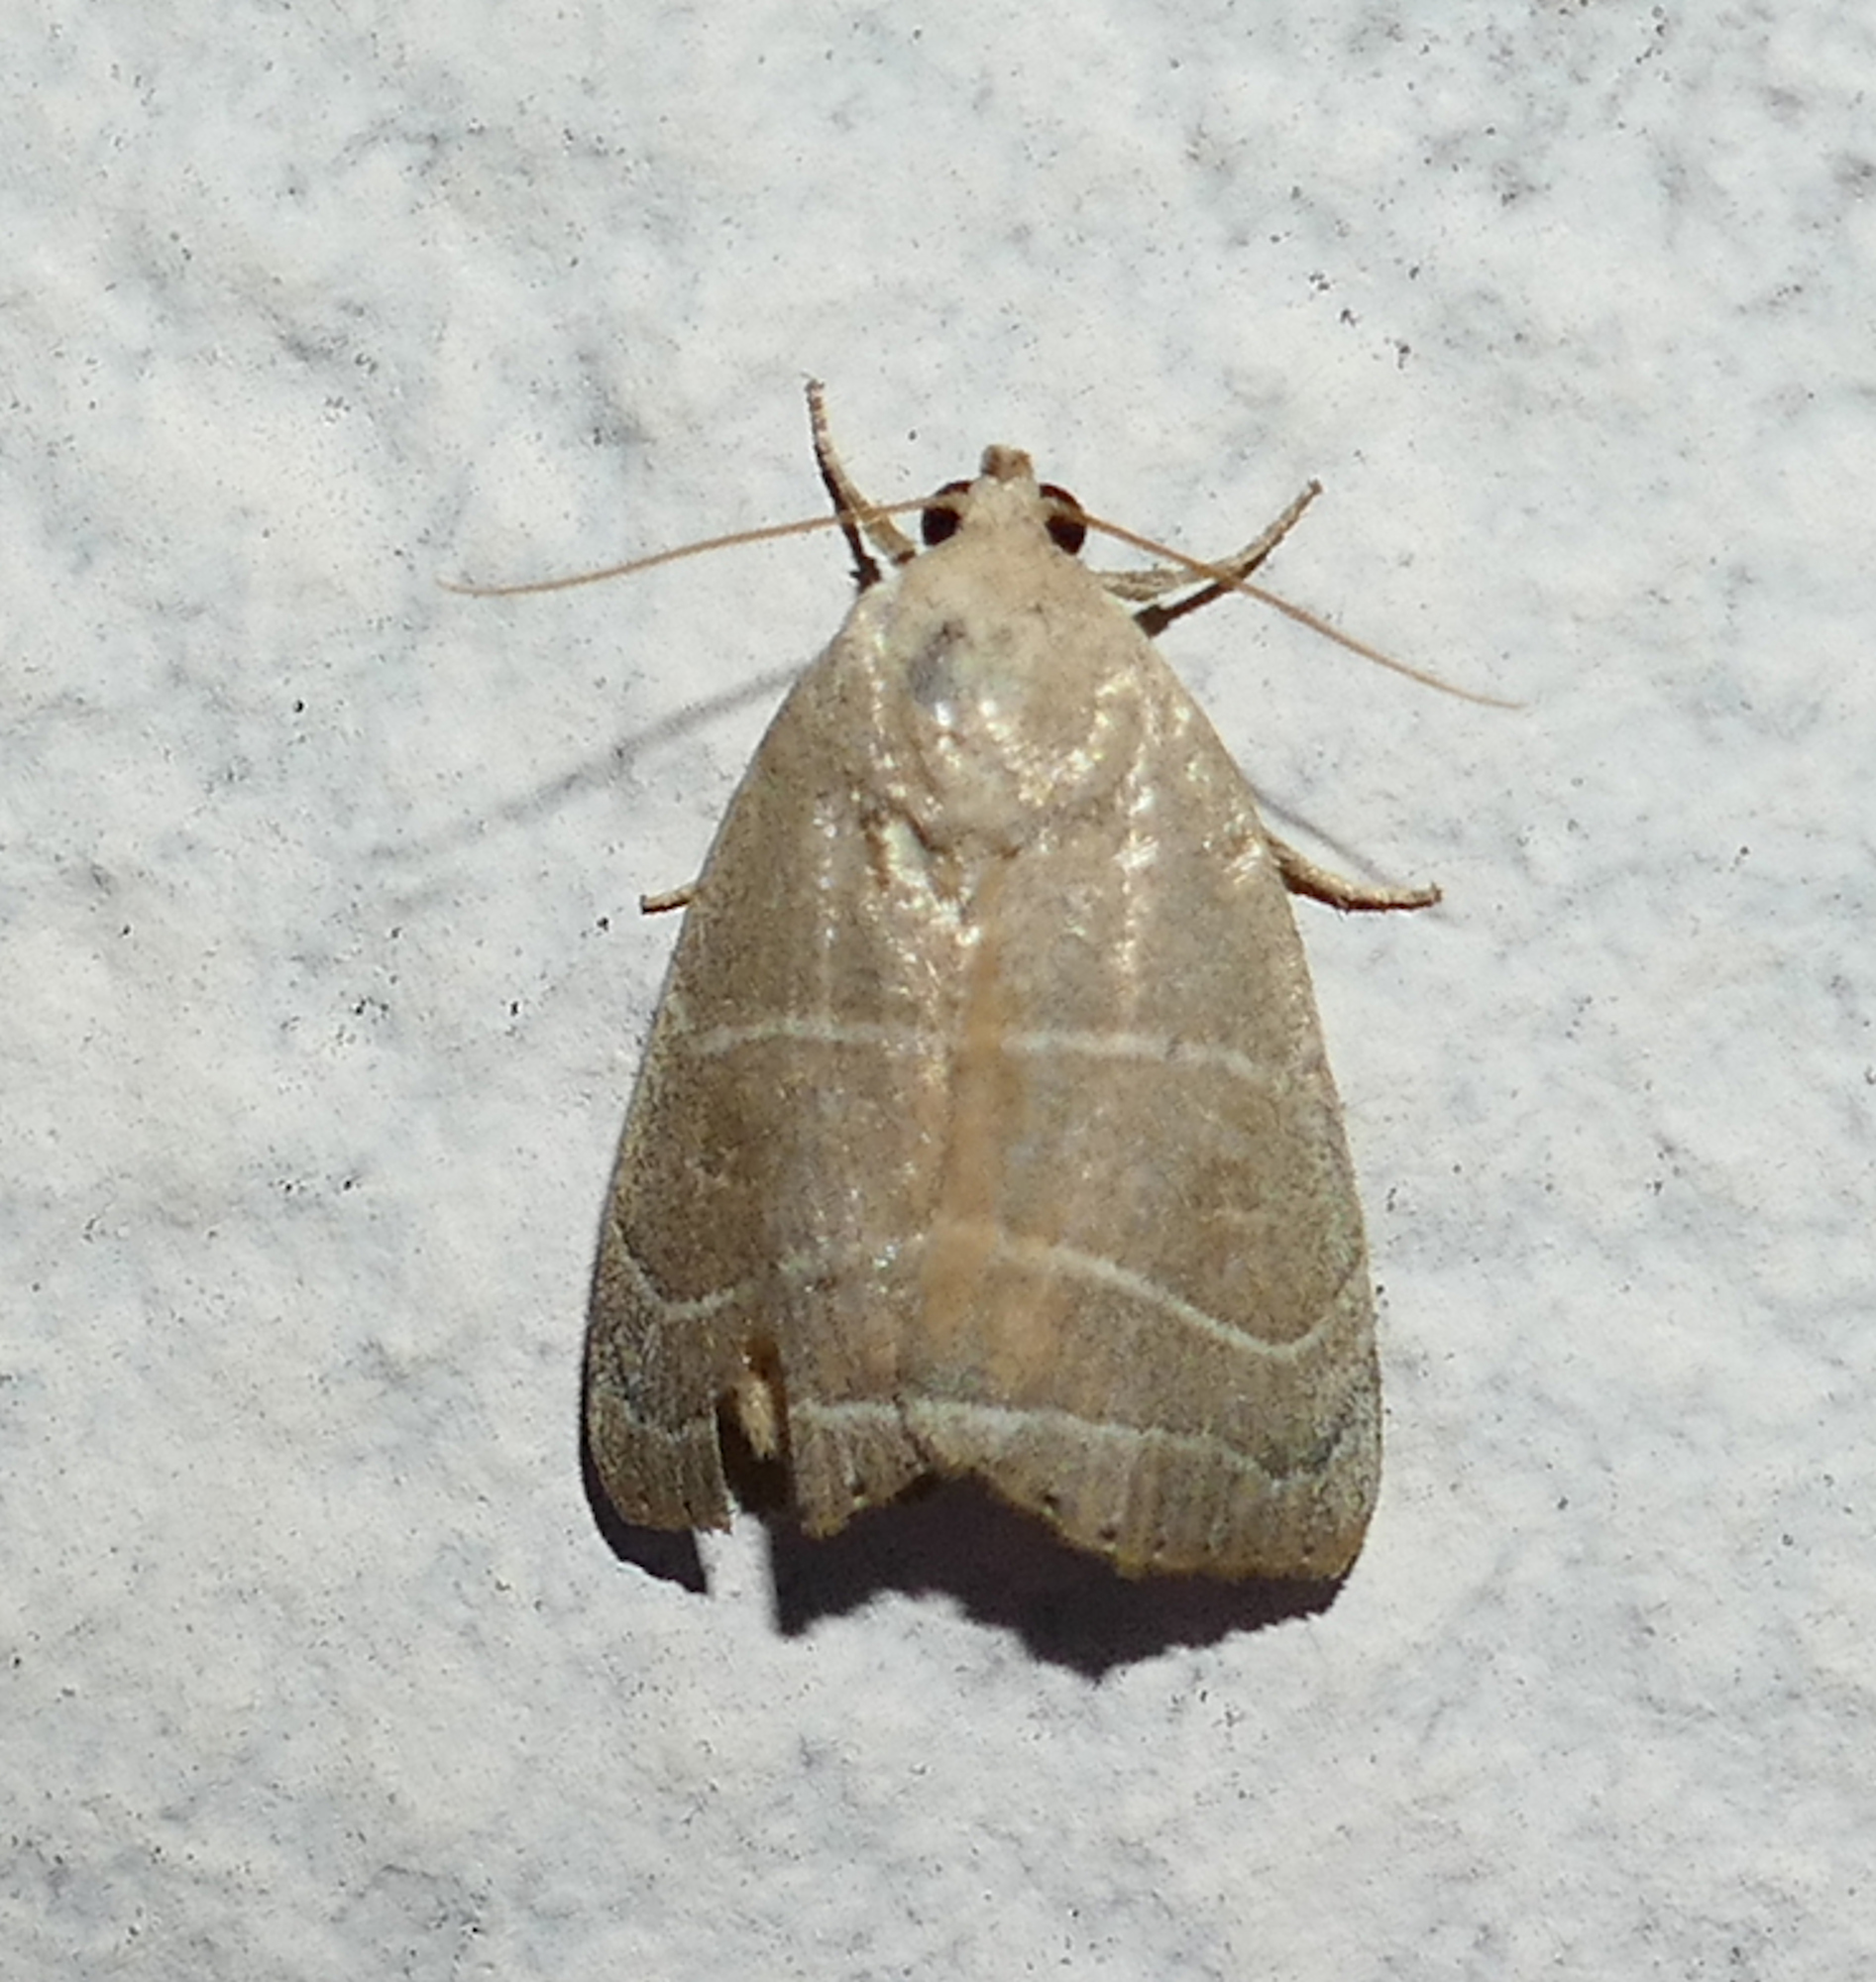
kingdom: Animalia
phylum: Arthropoda
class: Insecta
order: Lepidoptera
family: Noctuidae
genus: Bagisara
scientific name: Bagisara rectifascia
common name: Straight lined mallow moth
